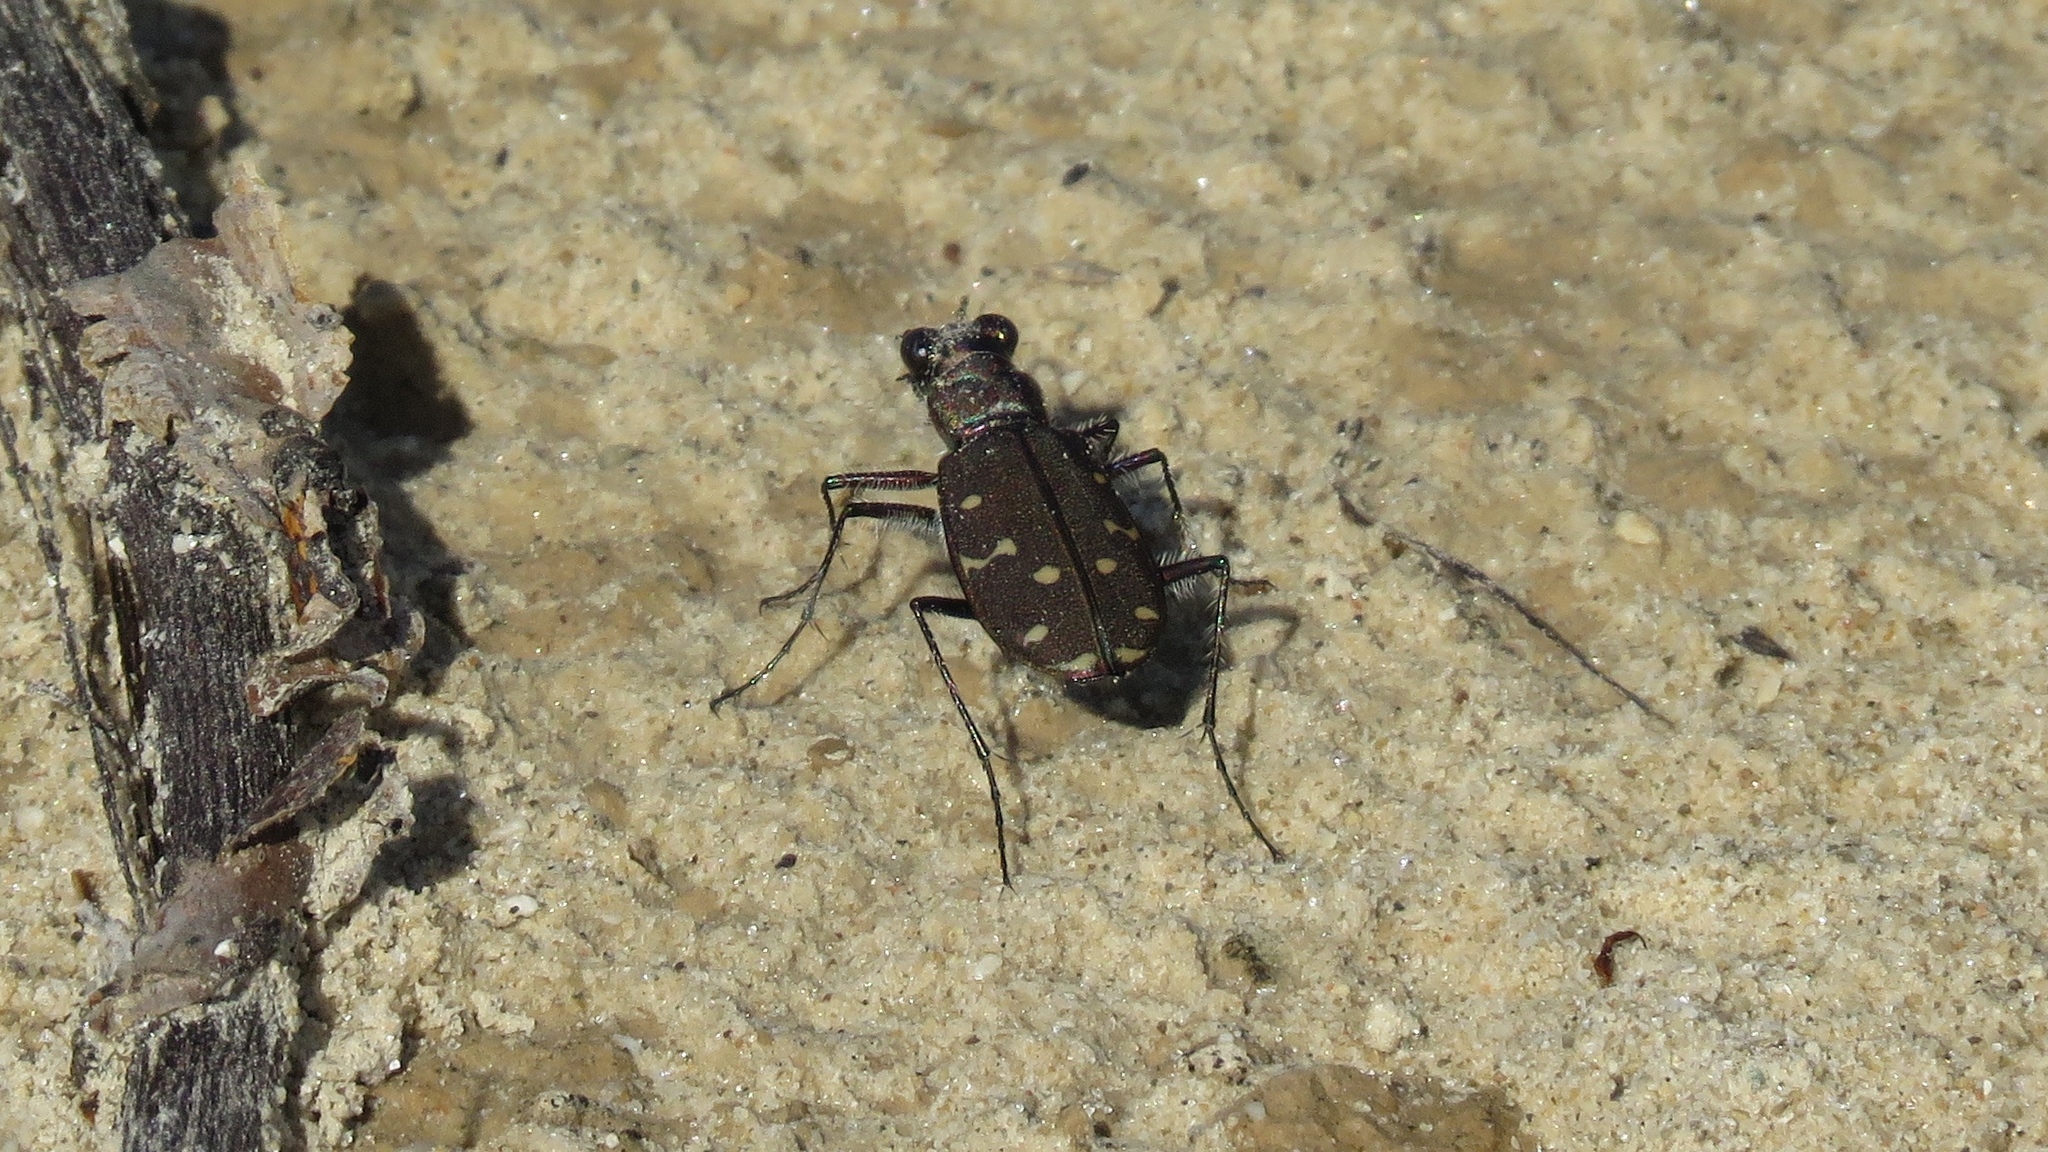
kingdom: Animalia
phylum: Arthropoda
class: Insecta
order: Coleoptera
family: Carabidae
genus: Cicindela
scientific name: Cicindela duodecimguttata
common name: Twelve-spotted tiger beetle
